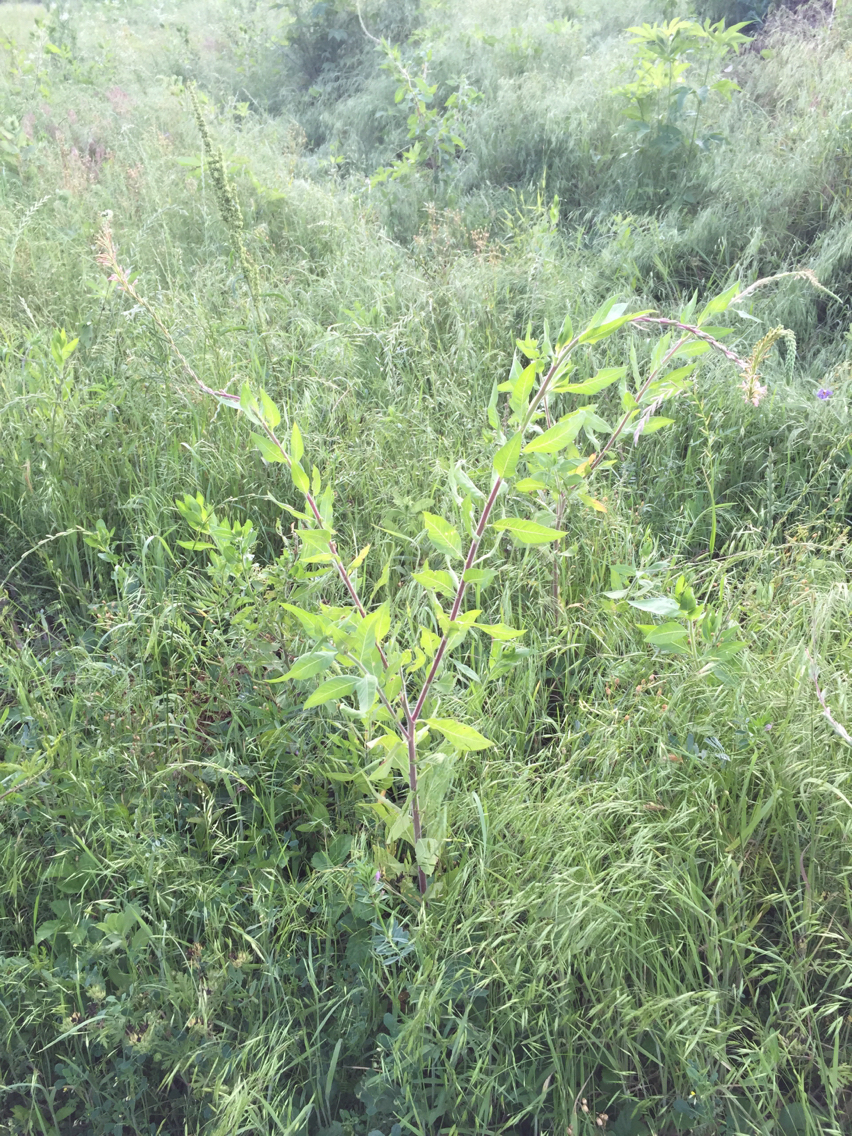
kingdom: Plantae
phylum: Tracheophyta
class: Magnoliopsida
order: Myrtales
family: Onagraceae
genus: Oenothera
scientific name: Oenothera curtiflora
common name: Velvetweed
